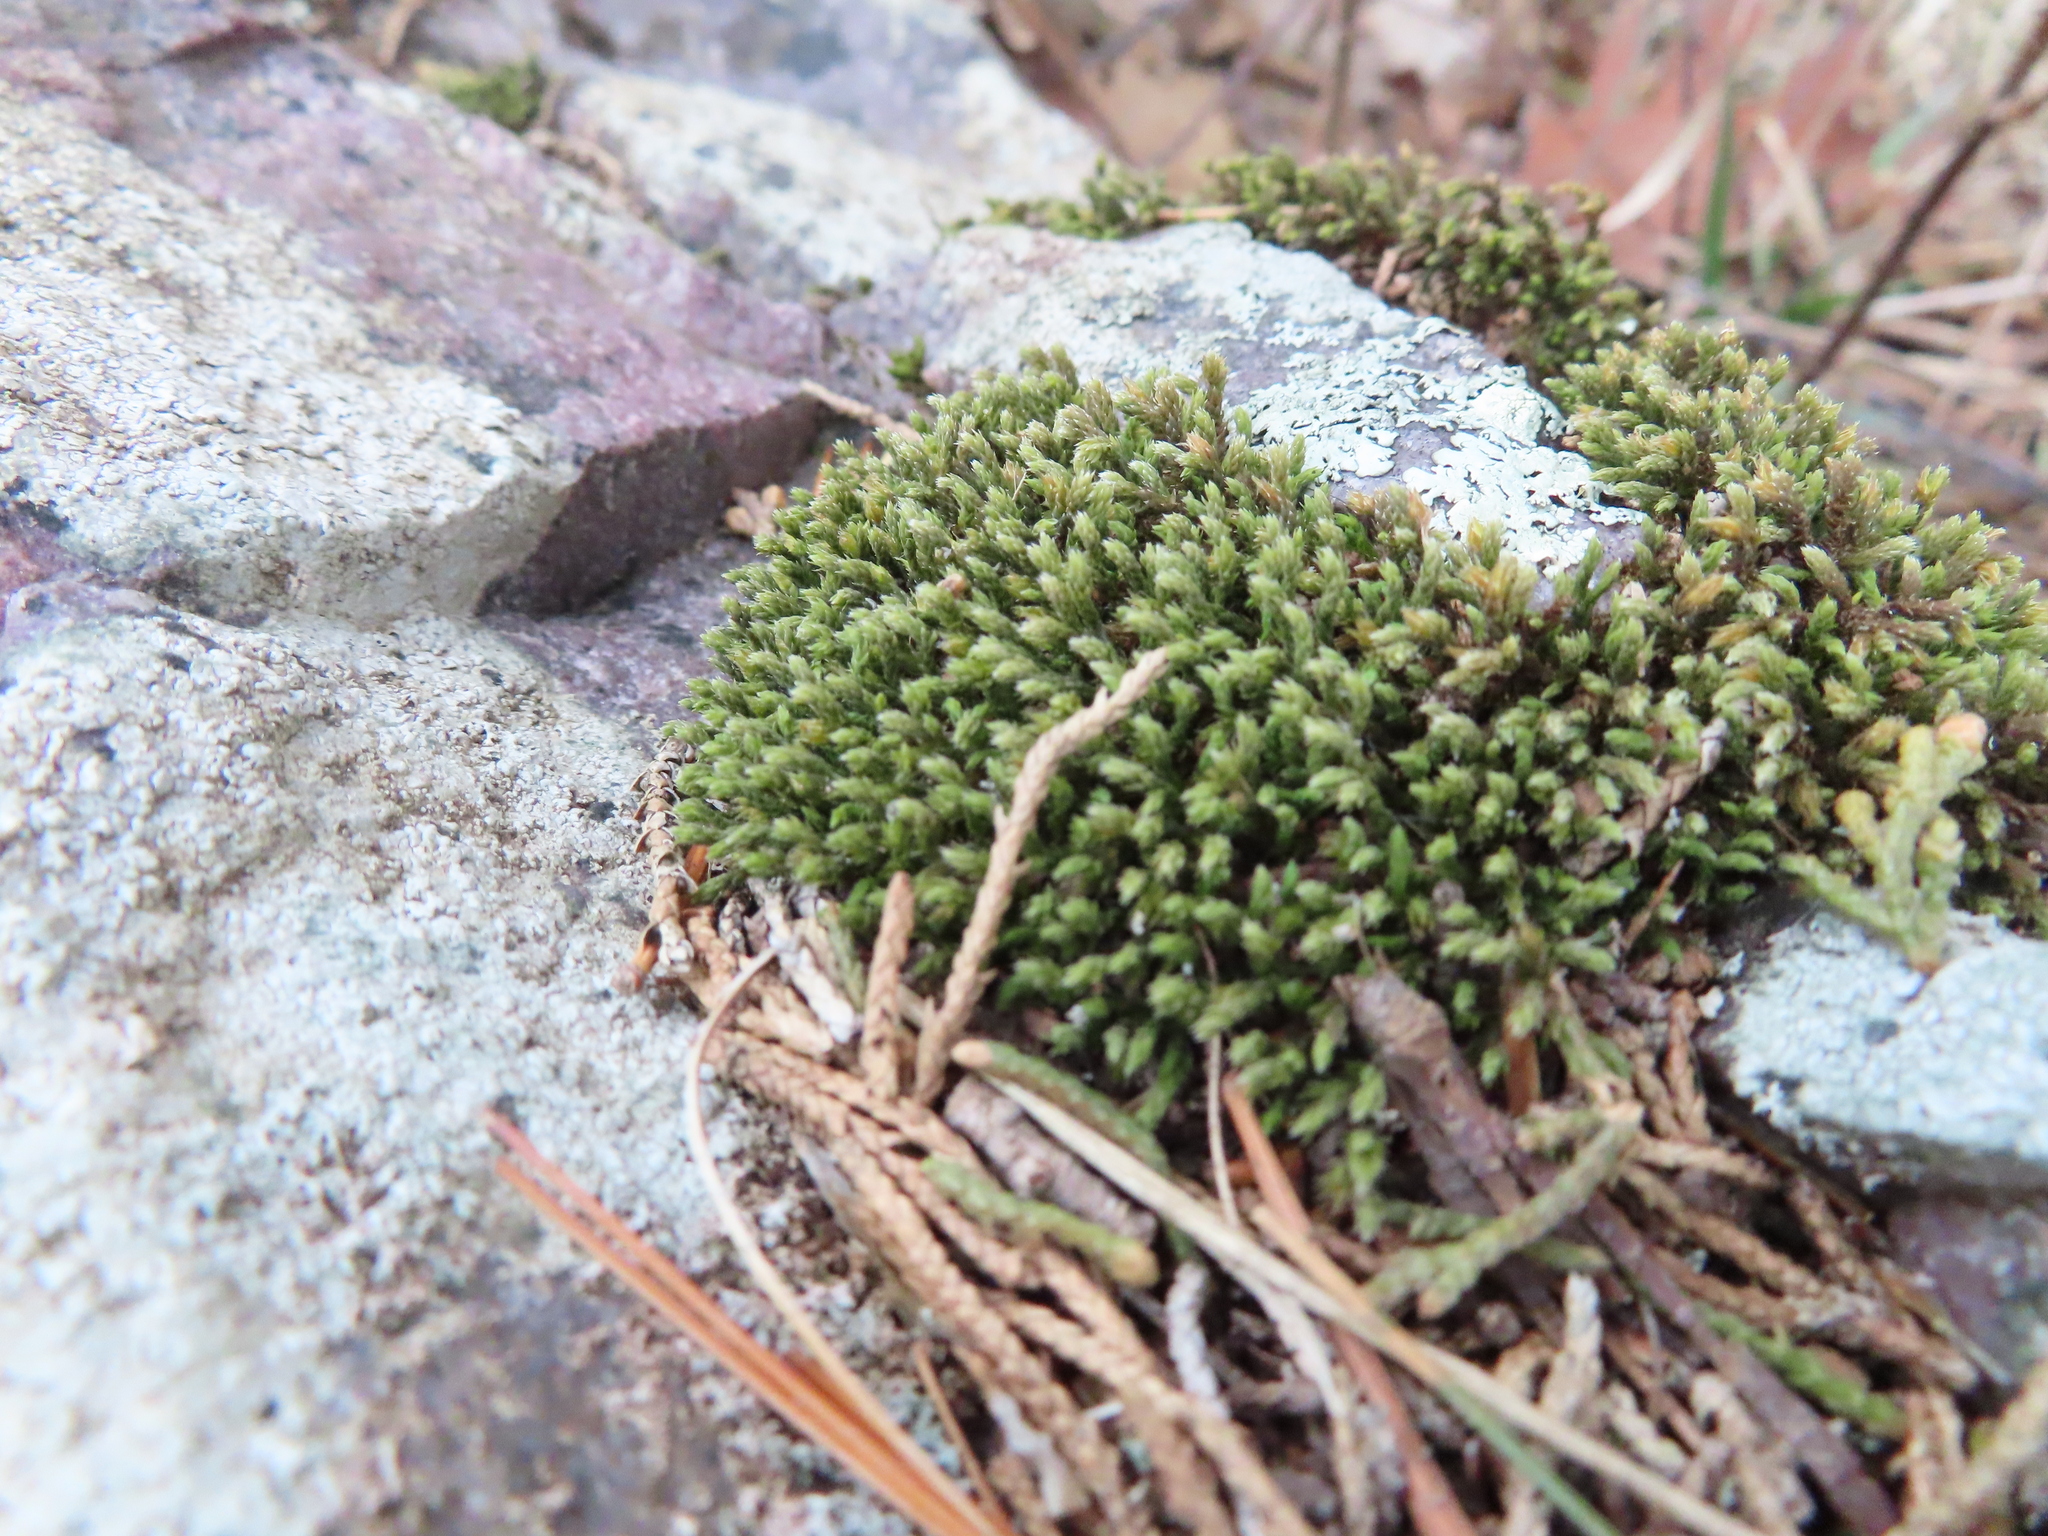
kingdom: Plantae
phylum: Bryophyta
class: Bryopsida
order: Hedwigiales
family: Hedwigiaceae
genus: Hedwigia
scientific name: Hedwigia ciliata
